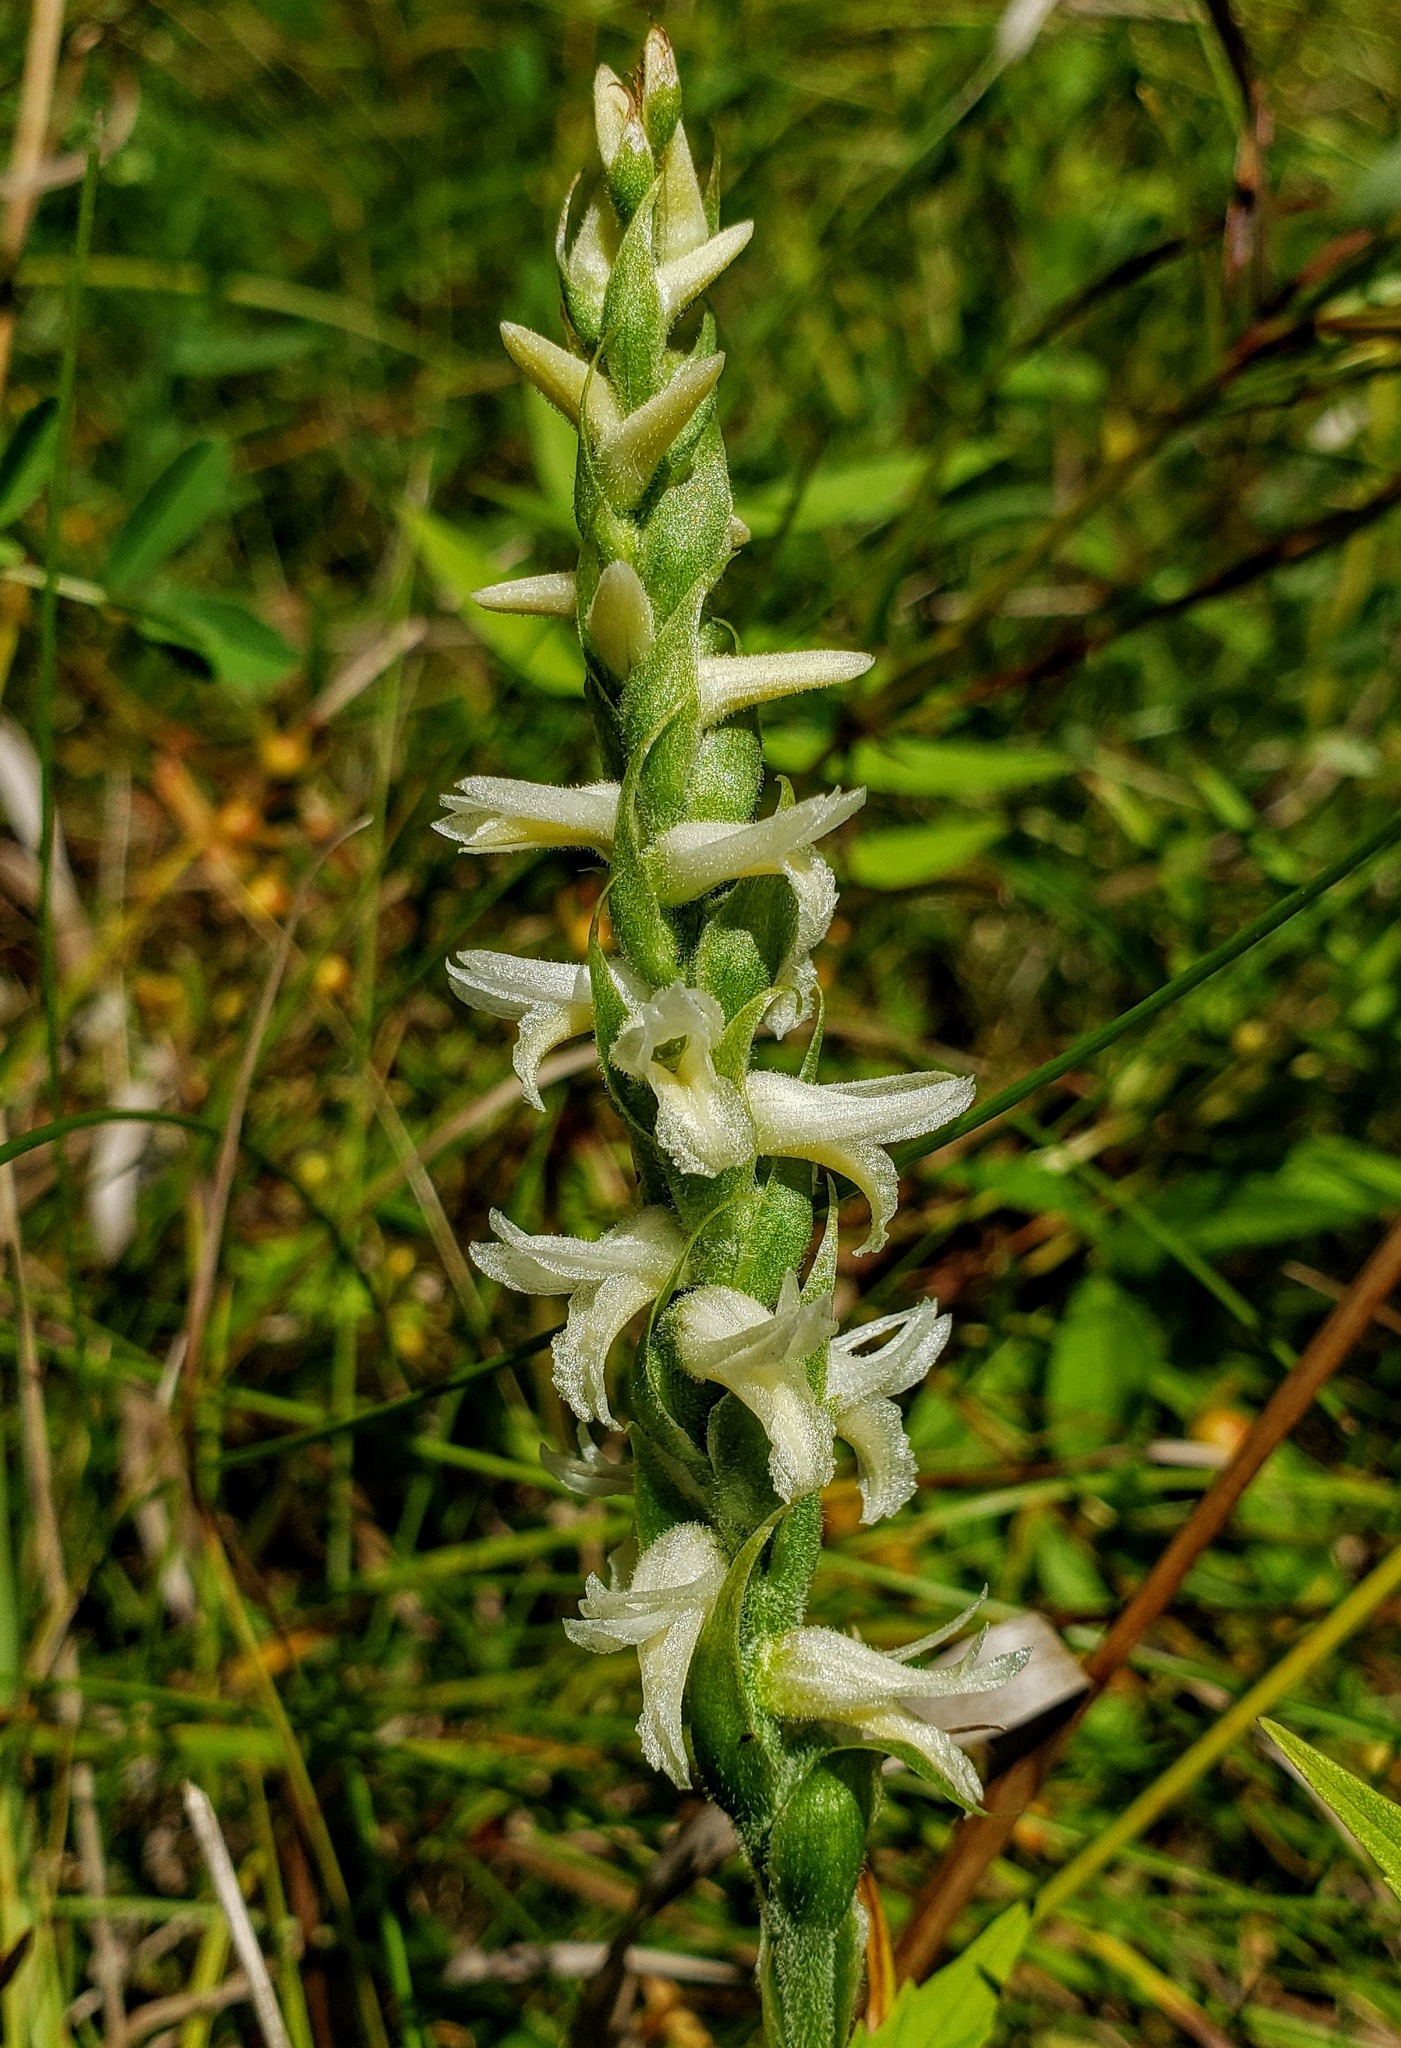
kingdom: Plantae
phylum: Tracheophyta
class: Liliopsida
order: Asparagales
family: Orchidaceae
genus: Spiranthes
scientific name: Spiranthes magnicamporum
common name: Great plains ladies'-tresses
